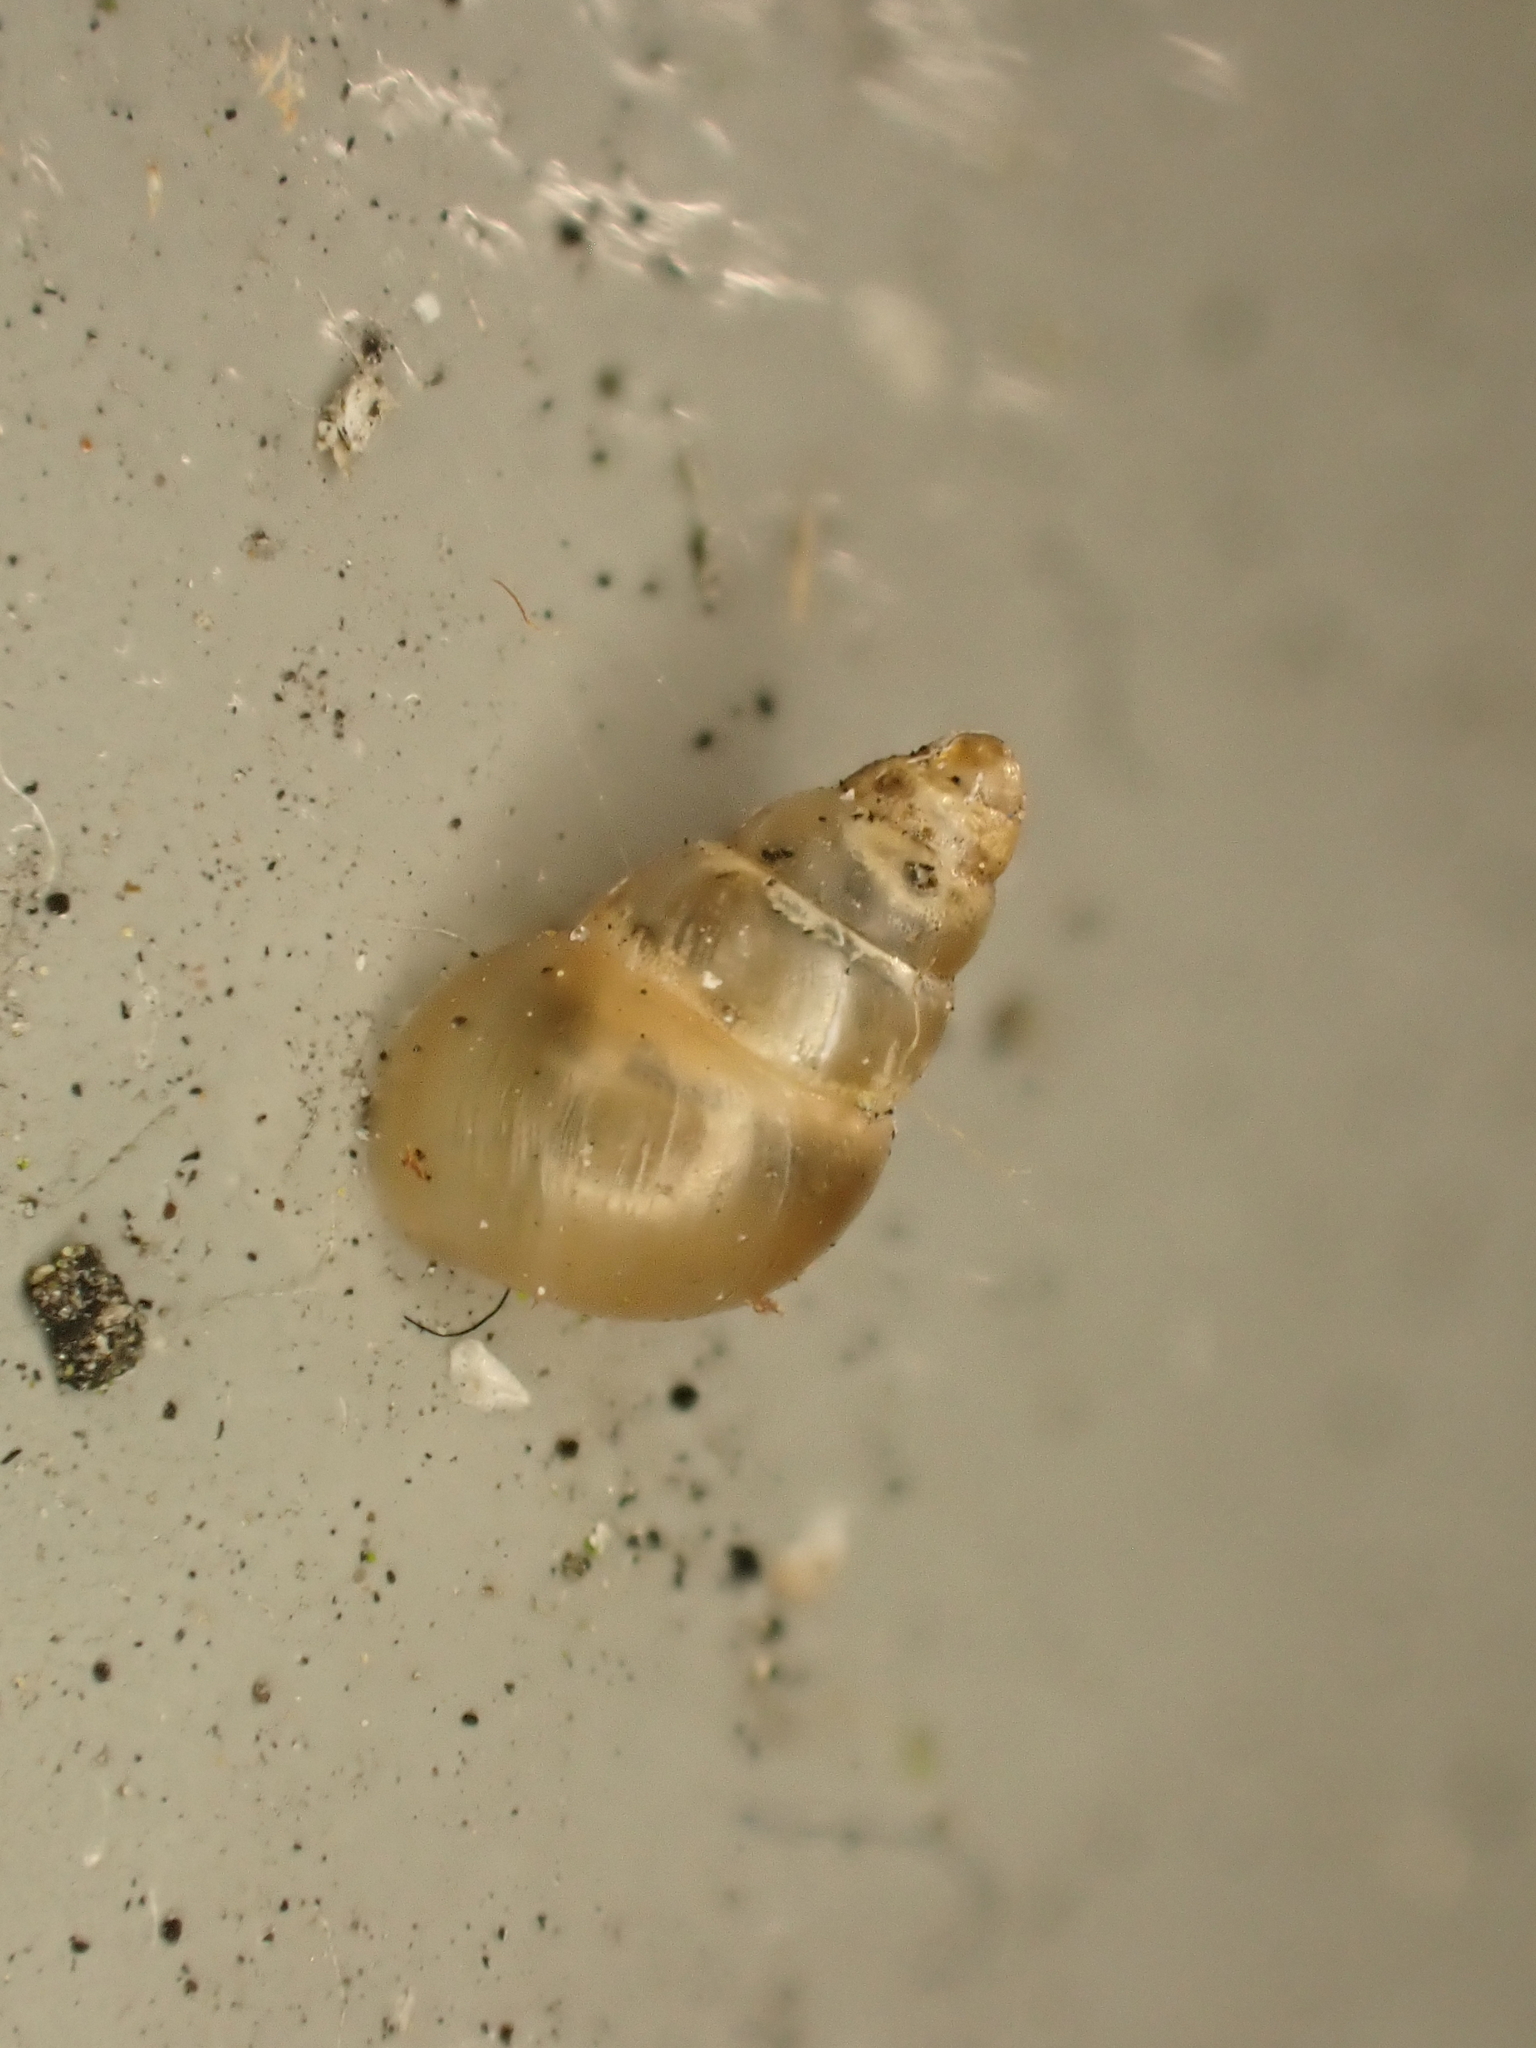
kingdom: Animalia
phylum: Mollusca
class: Gastropoda
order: Stylommatophora
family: Achatinellidae
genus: Tornatellides
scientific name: Tornatellides subperforatus
